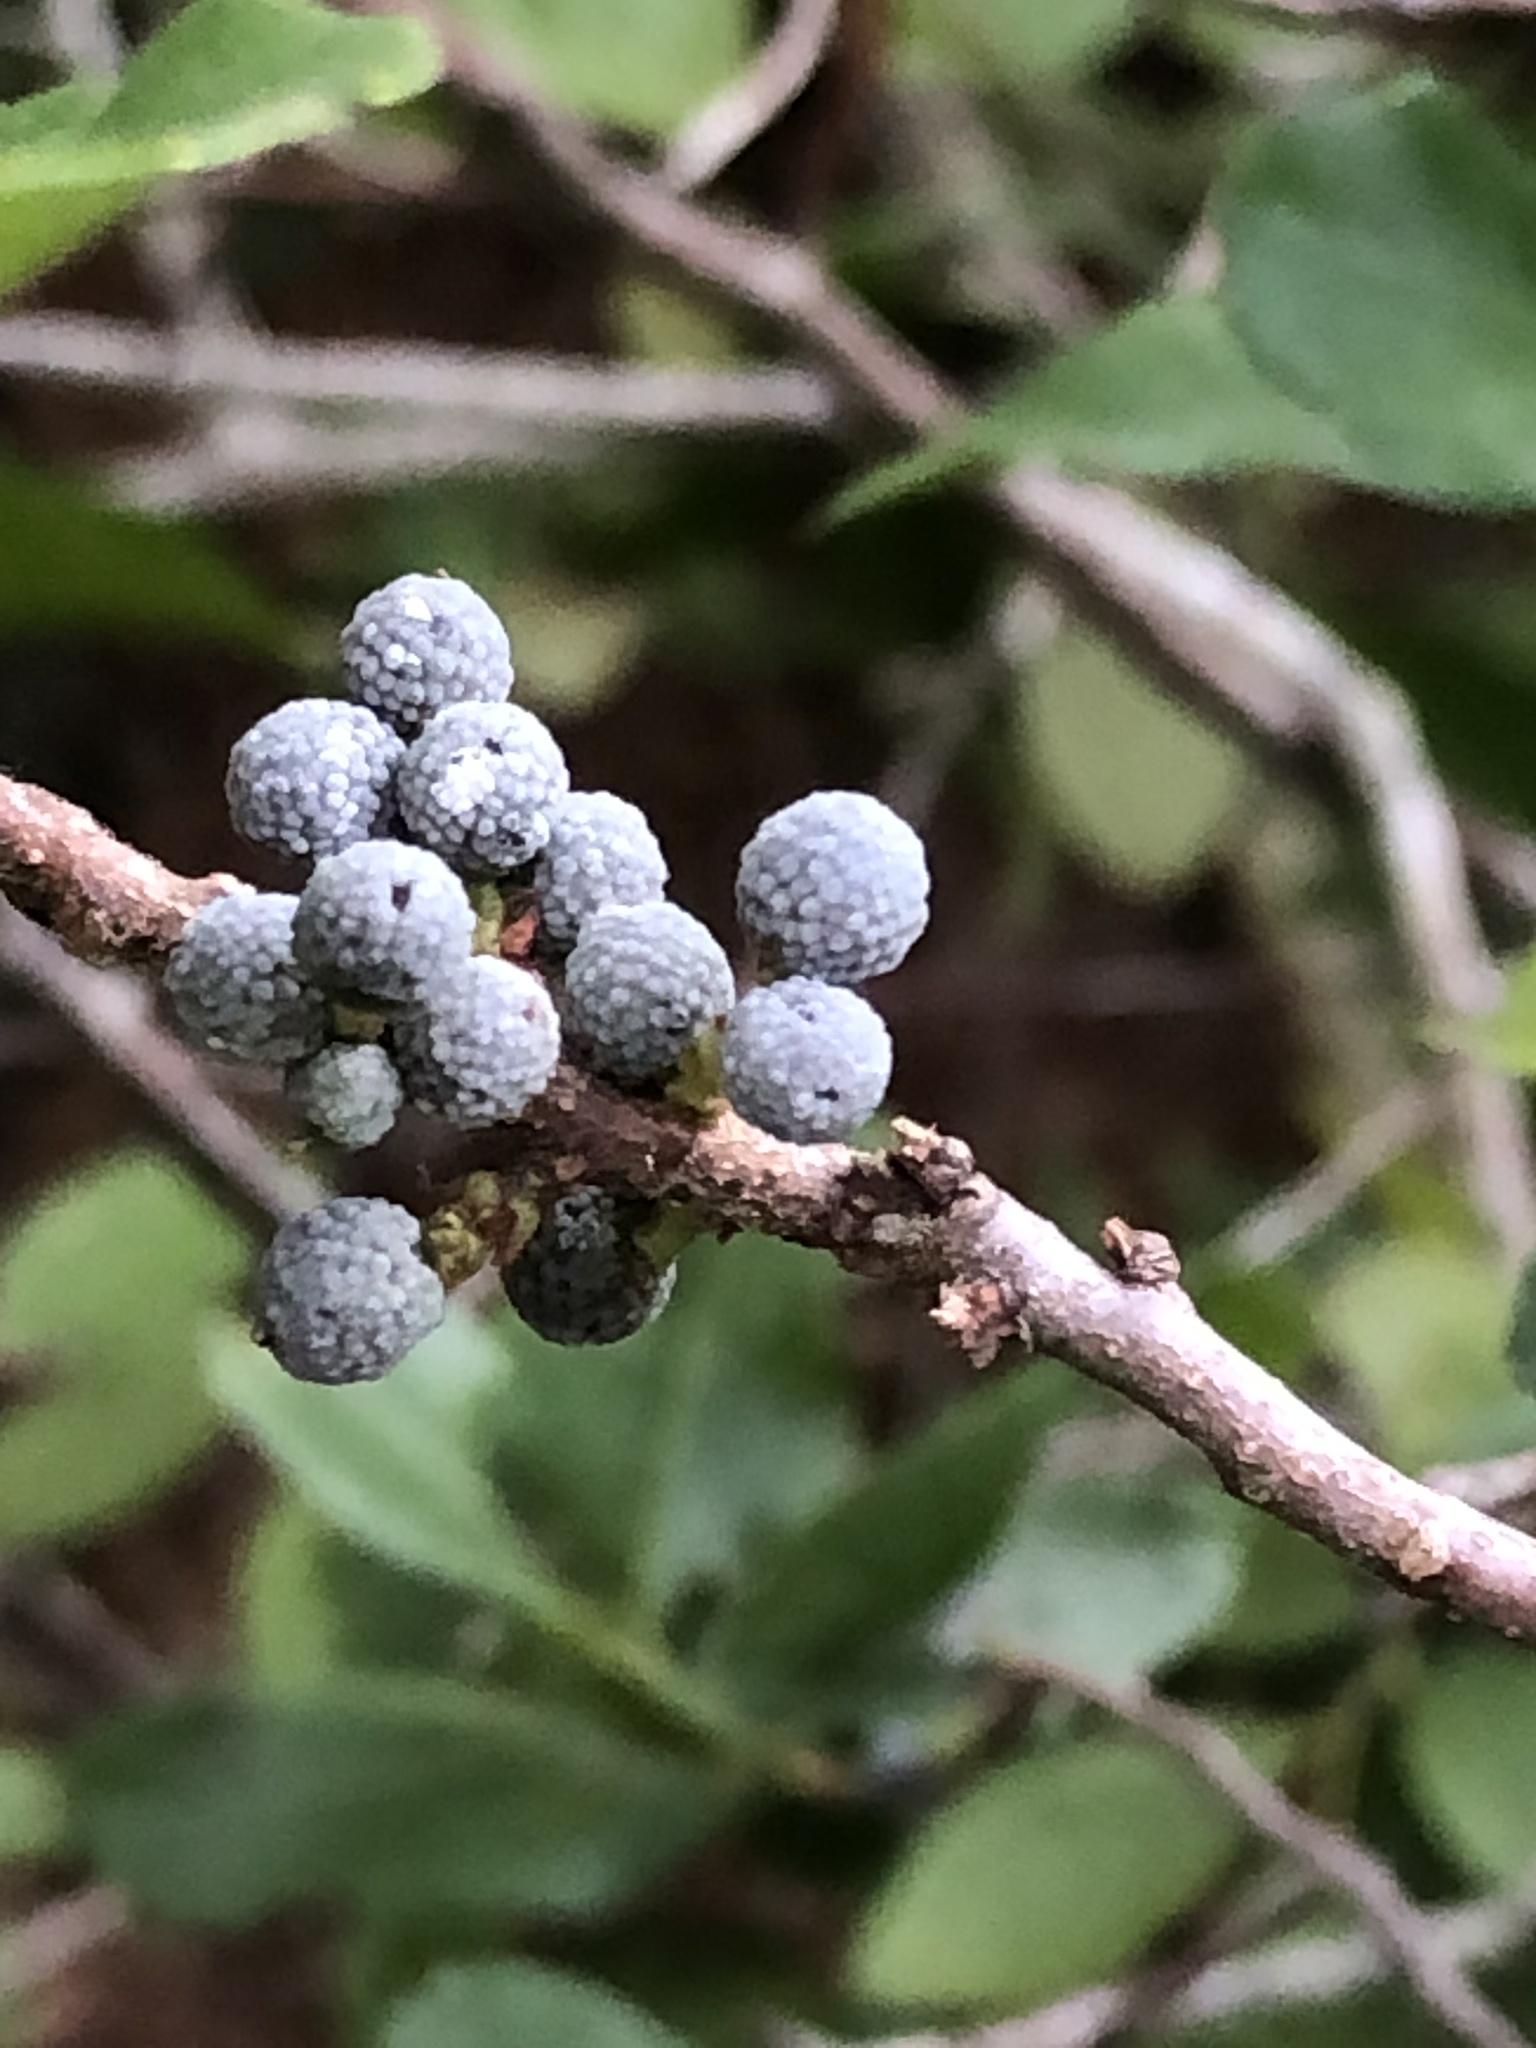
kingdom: Plantae
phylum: Tracheophyta
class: Magnoliopsida
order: Fagales
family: Myricaceae
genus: Morella
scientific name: Morella pensylvanica
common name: Northern bayberry
